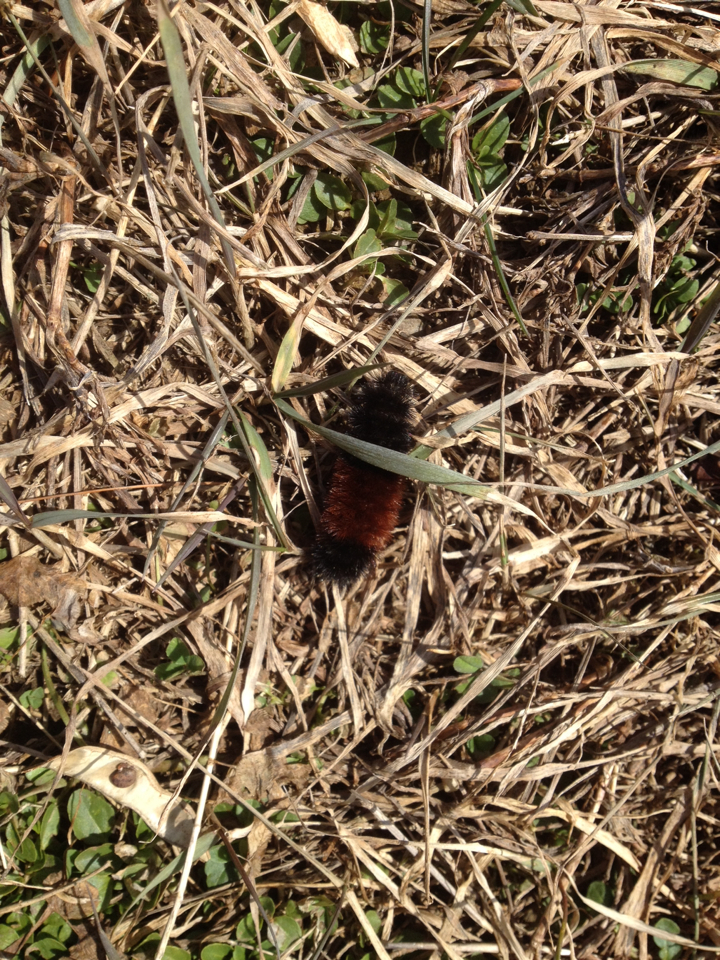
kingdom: Animalia
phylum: Arthropoda
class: Insecta
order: Lepidoptera
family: Erebidae
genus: Pyrrharctia
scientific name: Pyrrharctia isabella
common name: Isabella tiger moth
